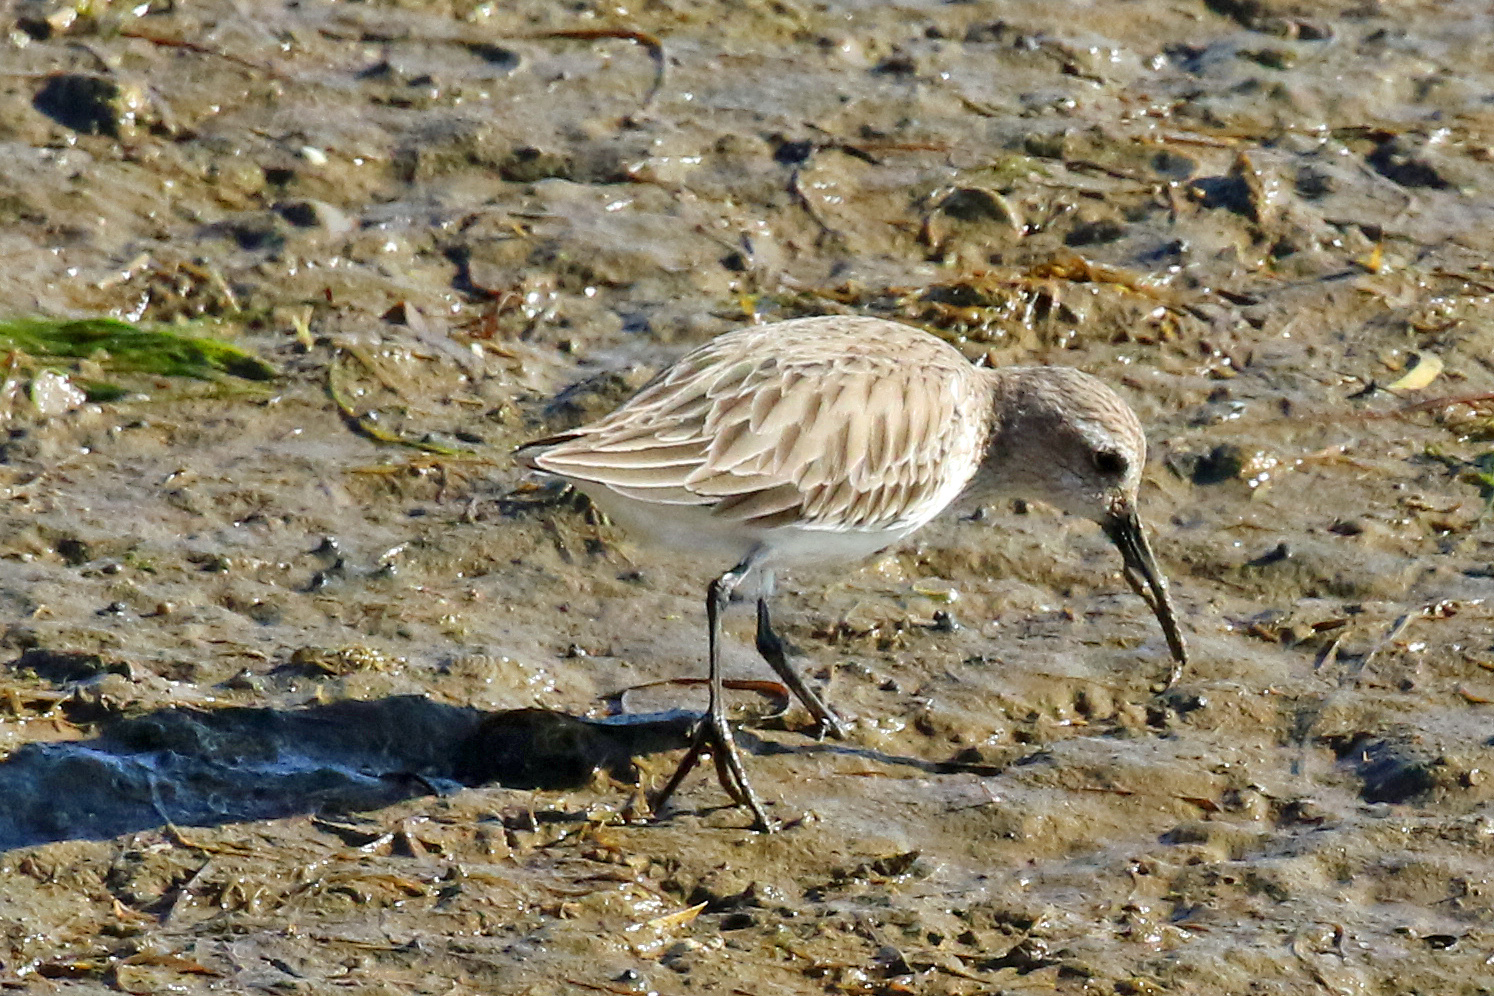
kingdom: Animalia
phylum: Chordata
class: Aves
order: Charadriiformes
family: Scolopacidae
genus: Calidris
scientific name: Calidris alpina
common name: Dunlin
